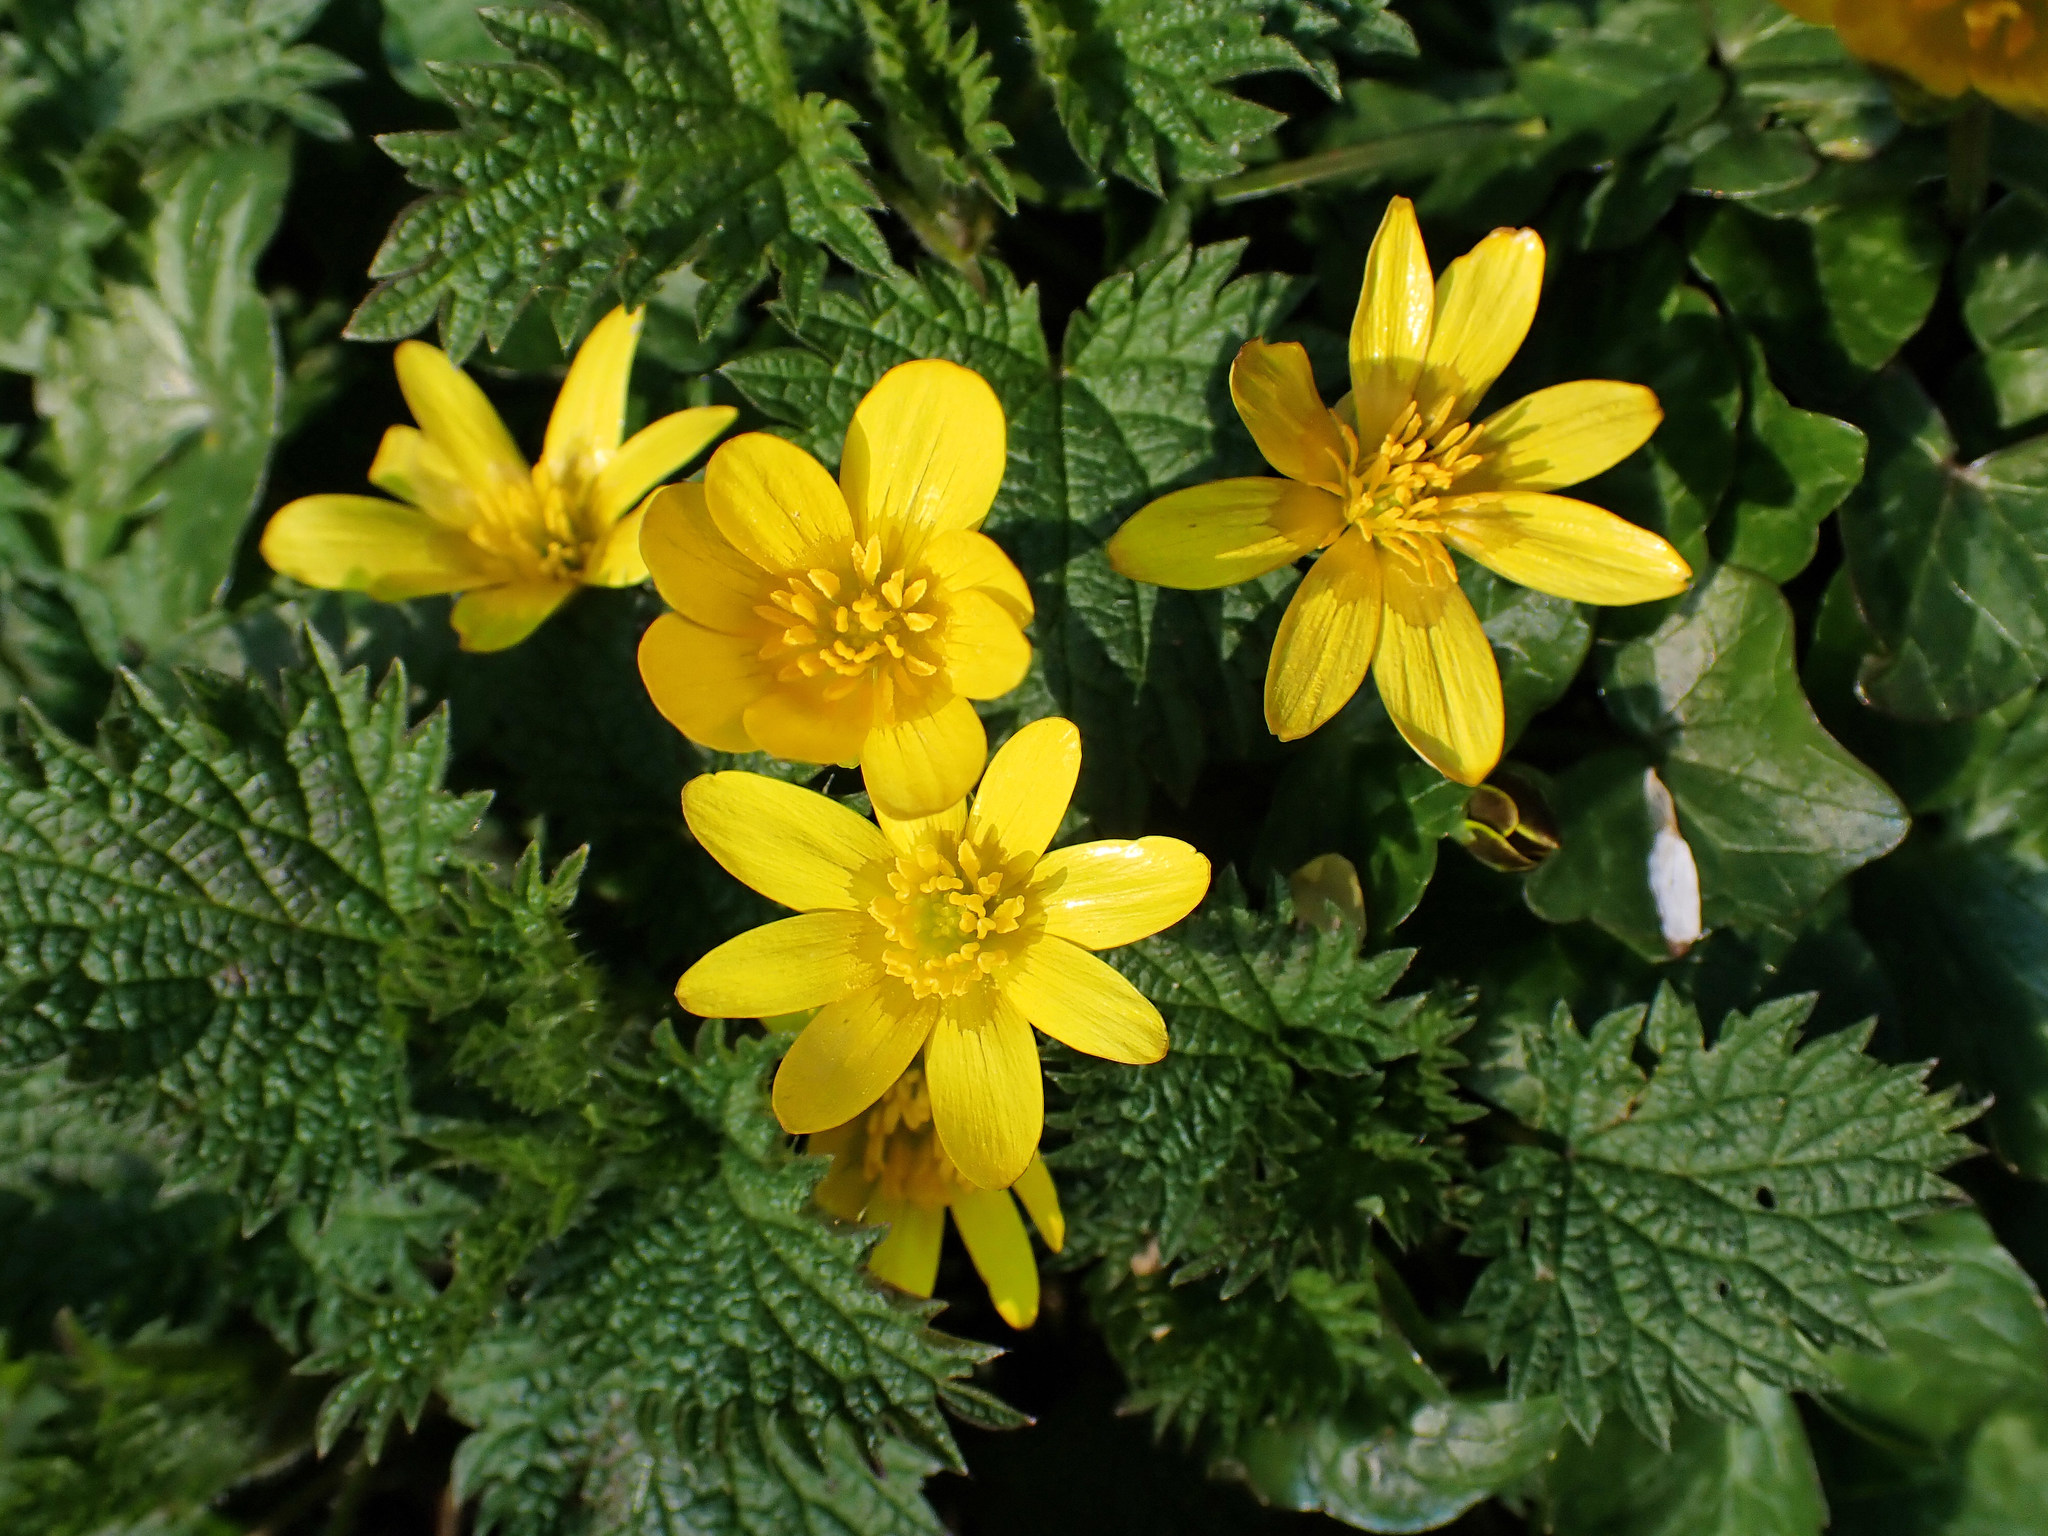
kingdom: Plantae
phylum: Tracheophyta
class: Magnoliopsida
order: Ranunculales
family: Ranunculaceae
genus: Ficaria
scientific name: Ficaria verna
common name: Lesser celandine
